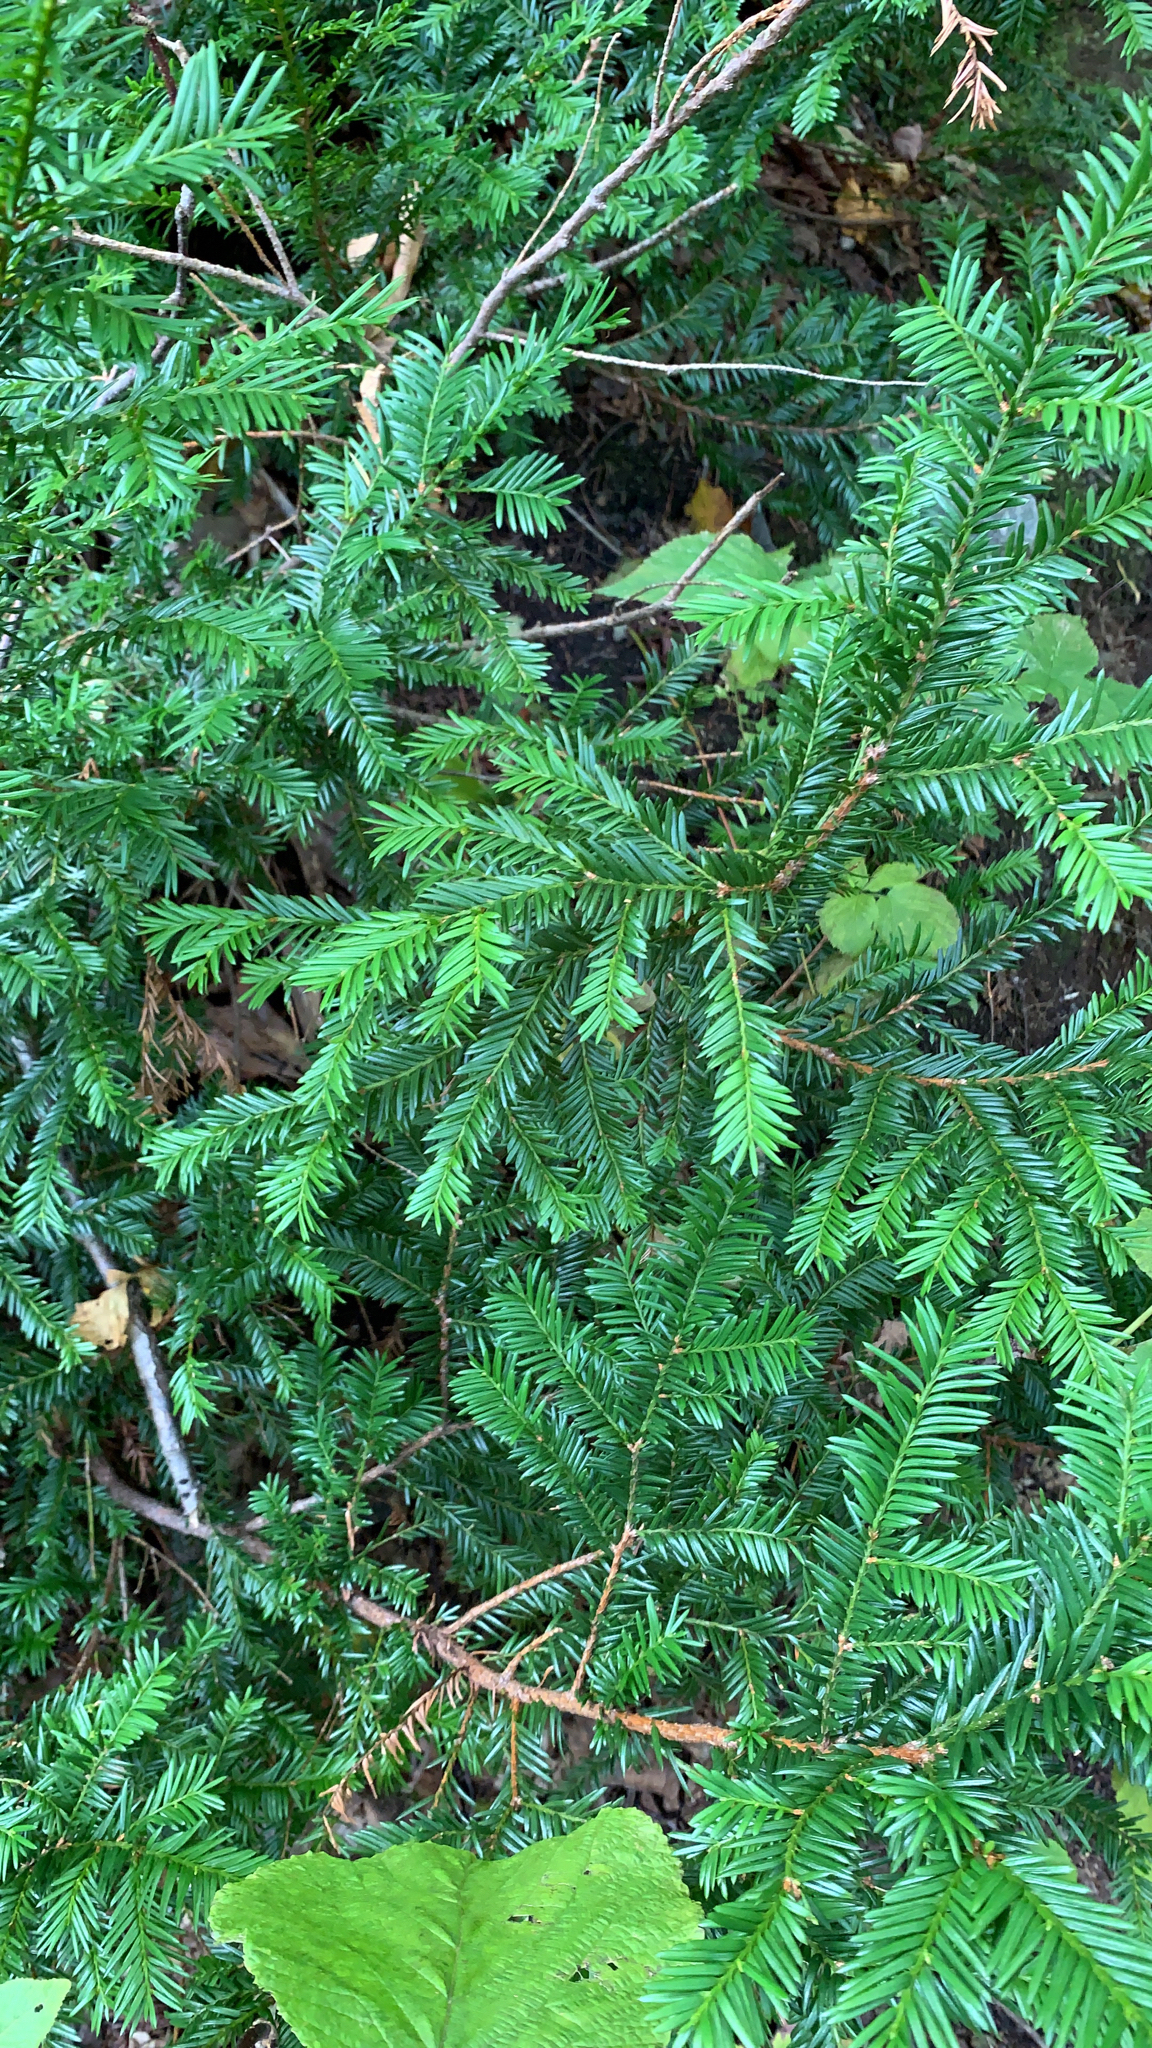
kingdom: Plantae
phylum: Tracheophyta
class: Pinopsida
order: Pinales
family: Taxaceae
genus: Taxus
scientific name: Taxus canadensis
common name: American yew
